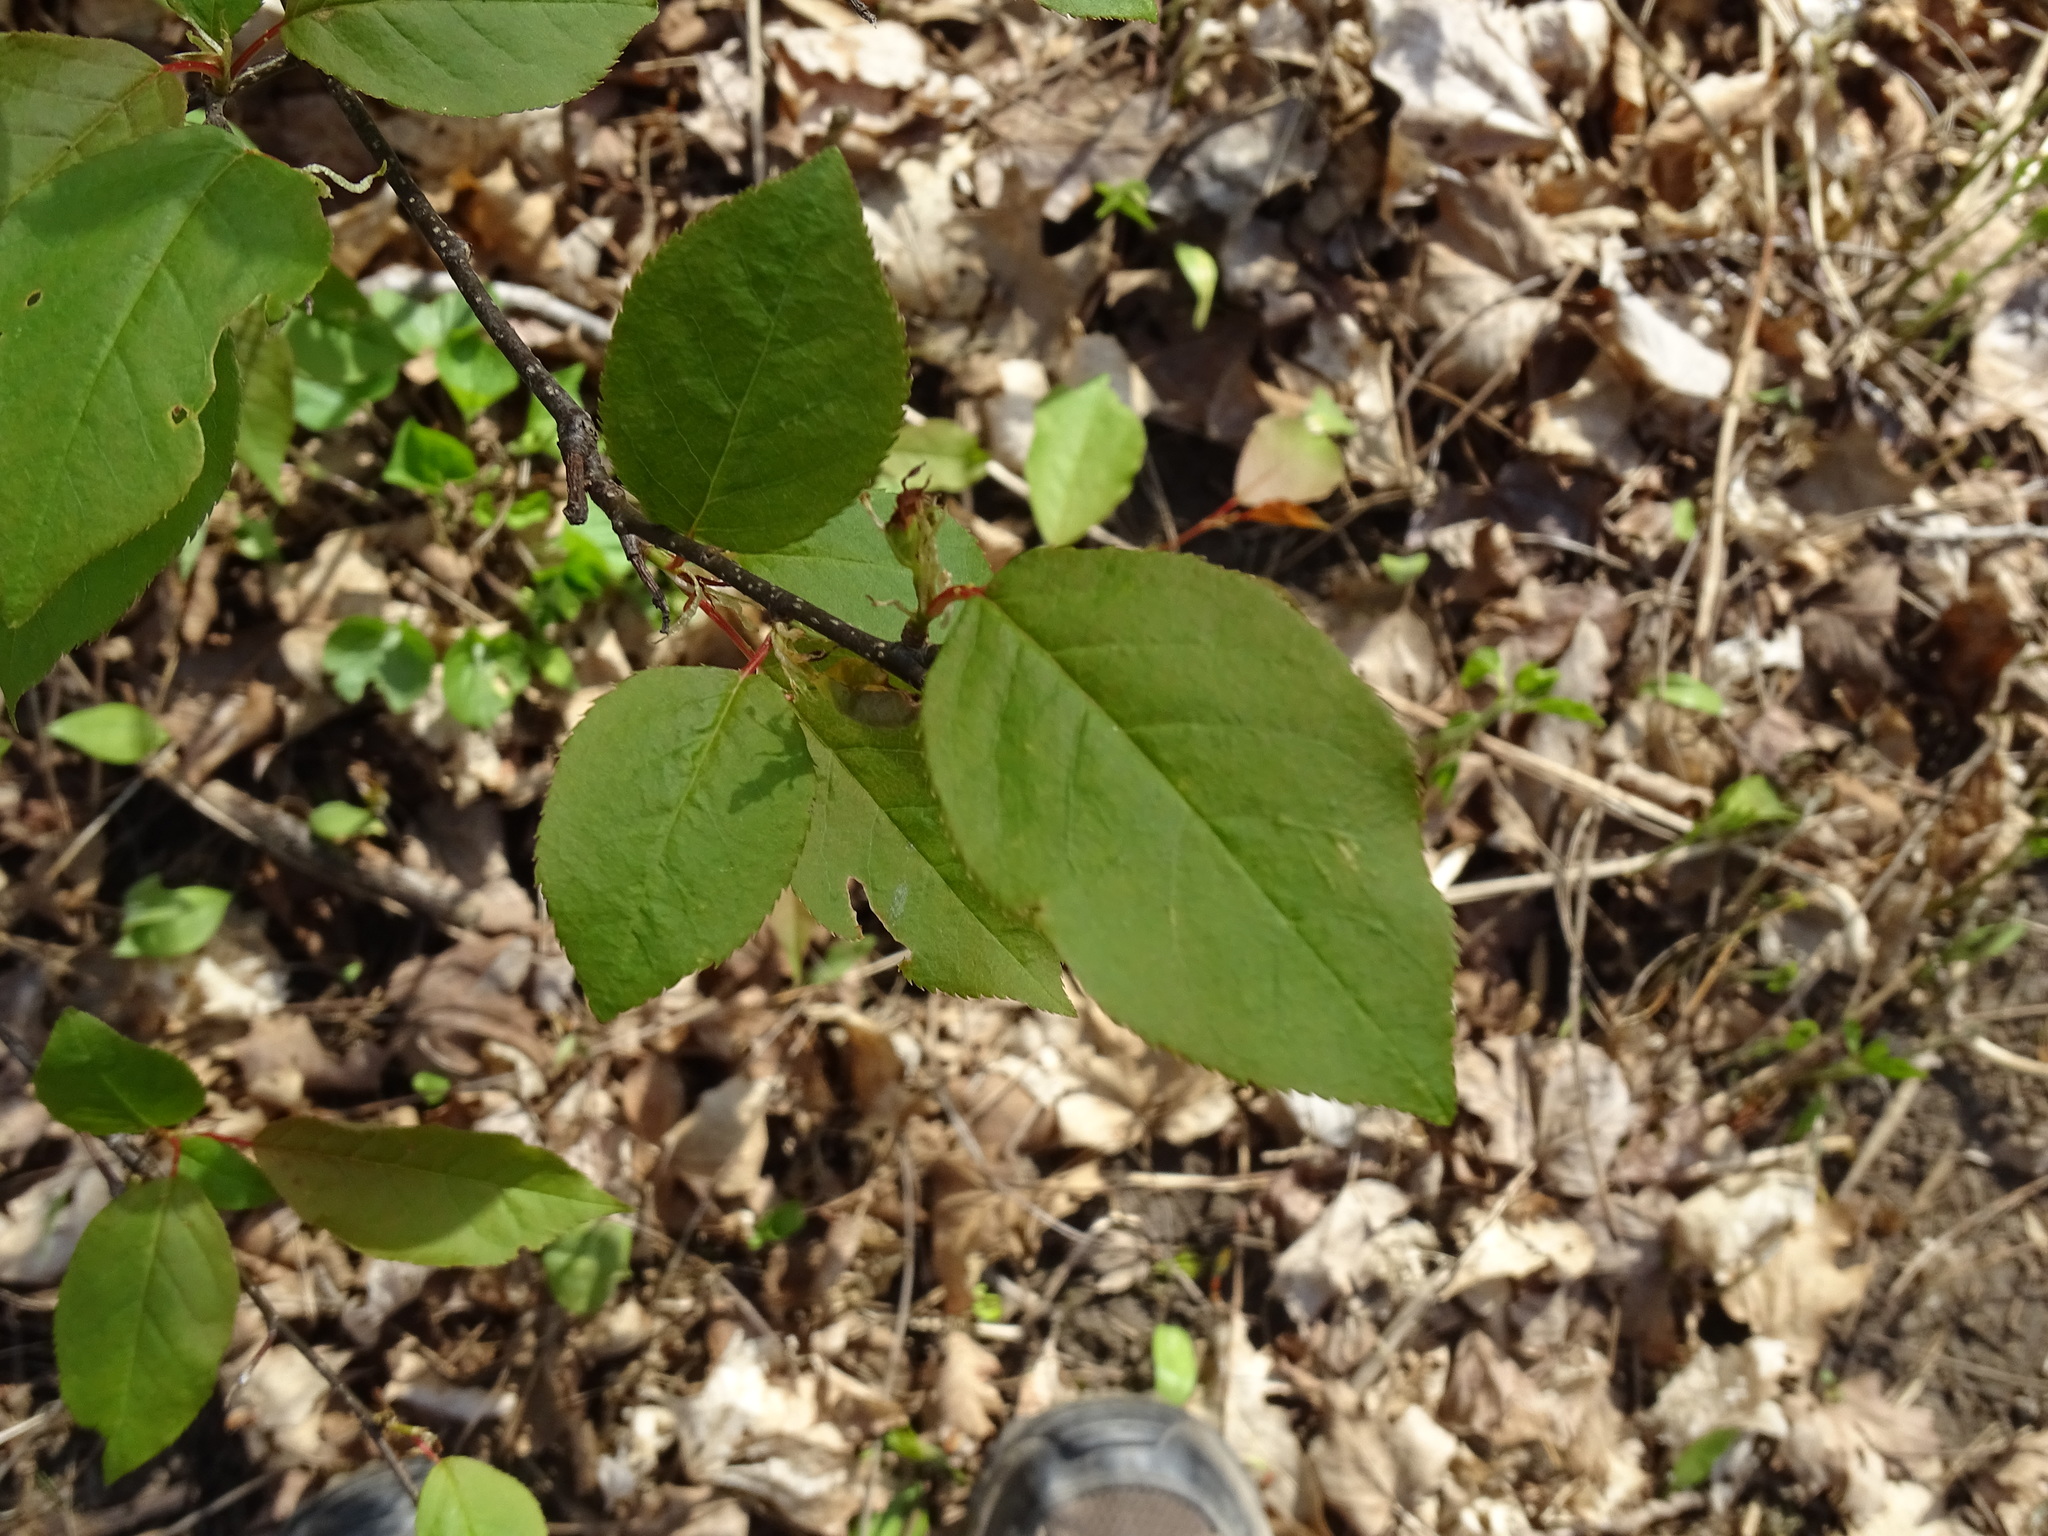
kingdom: Plantae
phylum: Tracheophyta
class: Magnoliopsida
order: Rosales
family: Rosaceae
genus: Prunus
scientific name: Prunus virginiana
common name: Chokecherry
